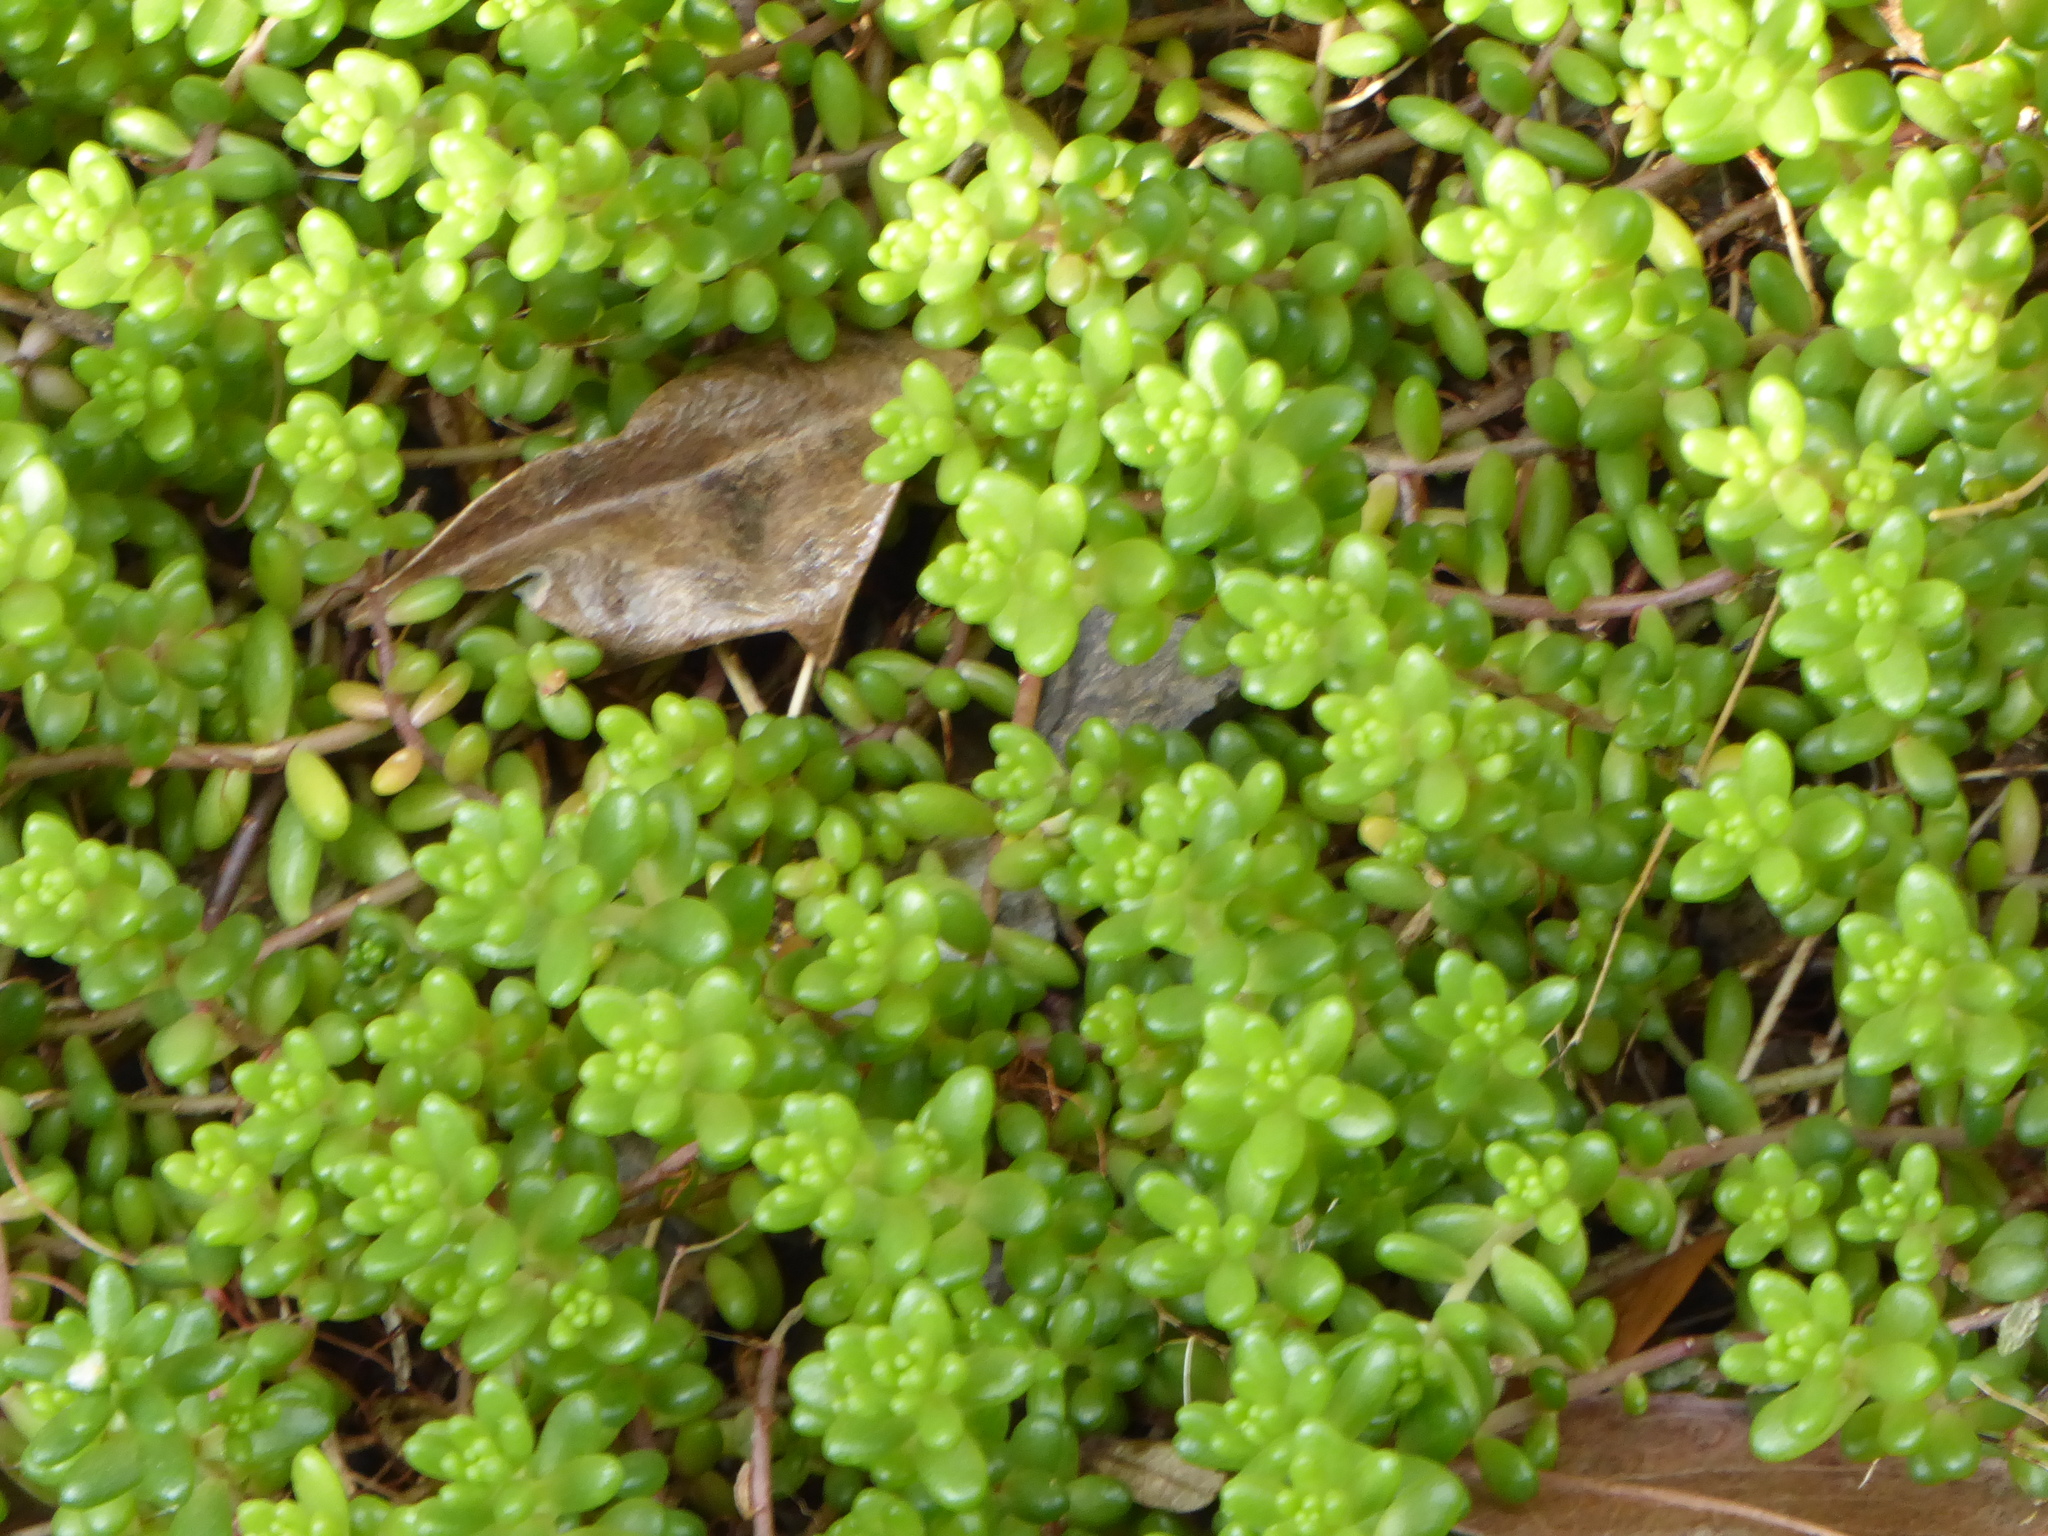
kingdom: Plantae
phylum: Tracheophyta
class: Magnoliopsida
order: Saxifragales
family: Crassulaceae
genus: Sedum
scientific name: Sedum album
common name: White stonecrop
